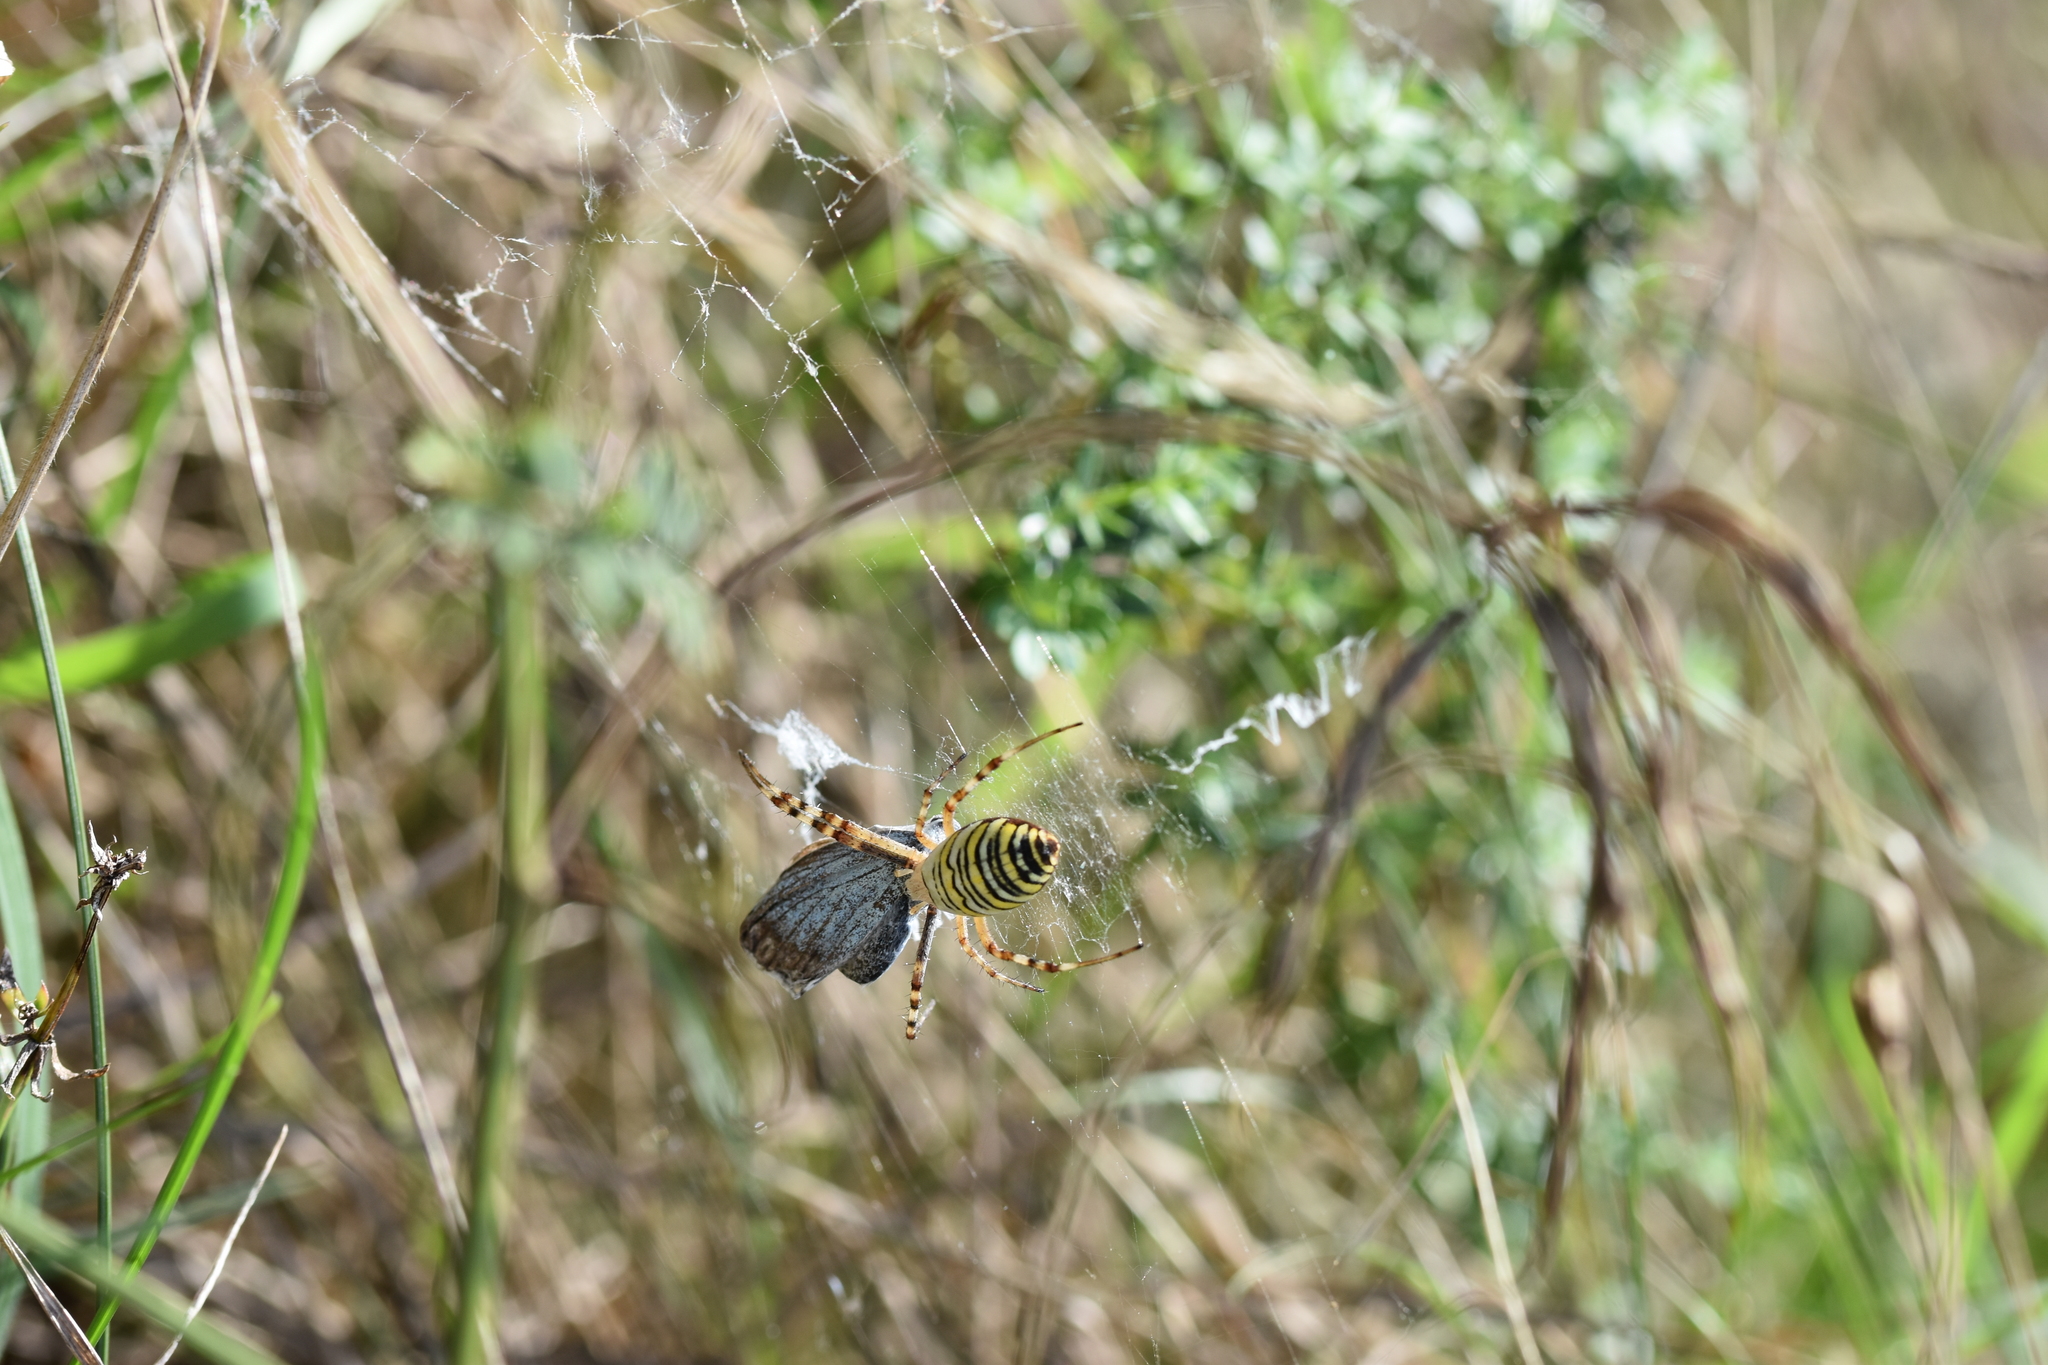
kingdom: Animalia
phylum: Arthropoda
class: Arachnida
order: Araneae
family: Araneidae
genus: Argiope
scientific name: Argiope bruennichi
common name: Wasp spider
